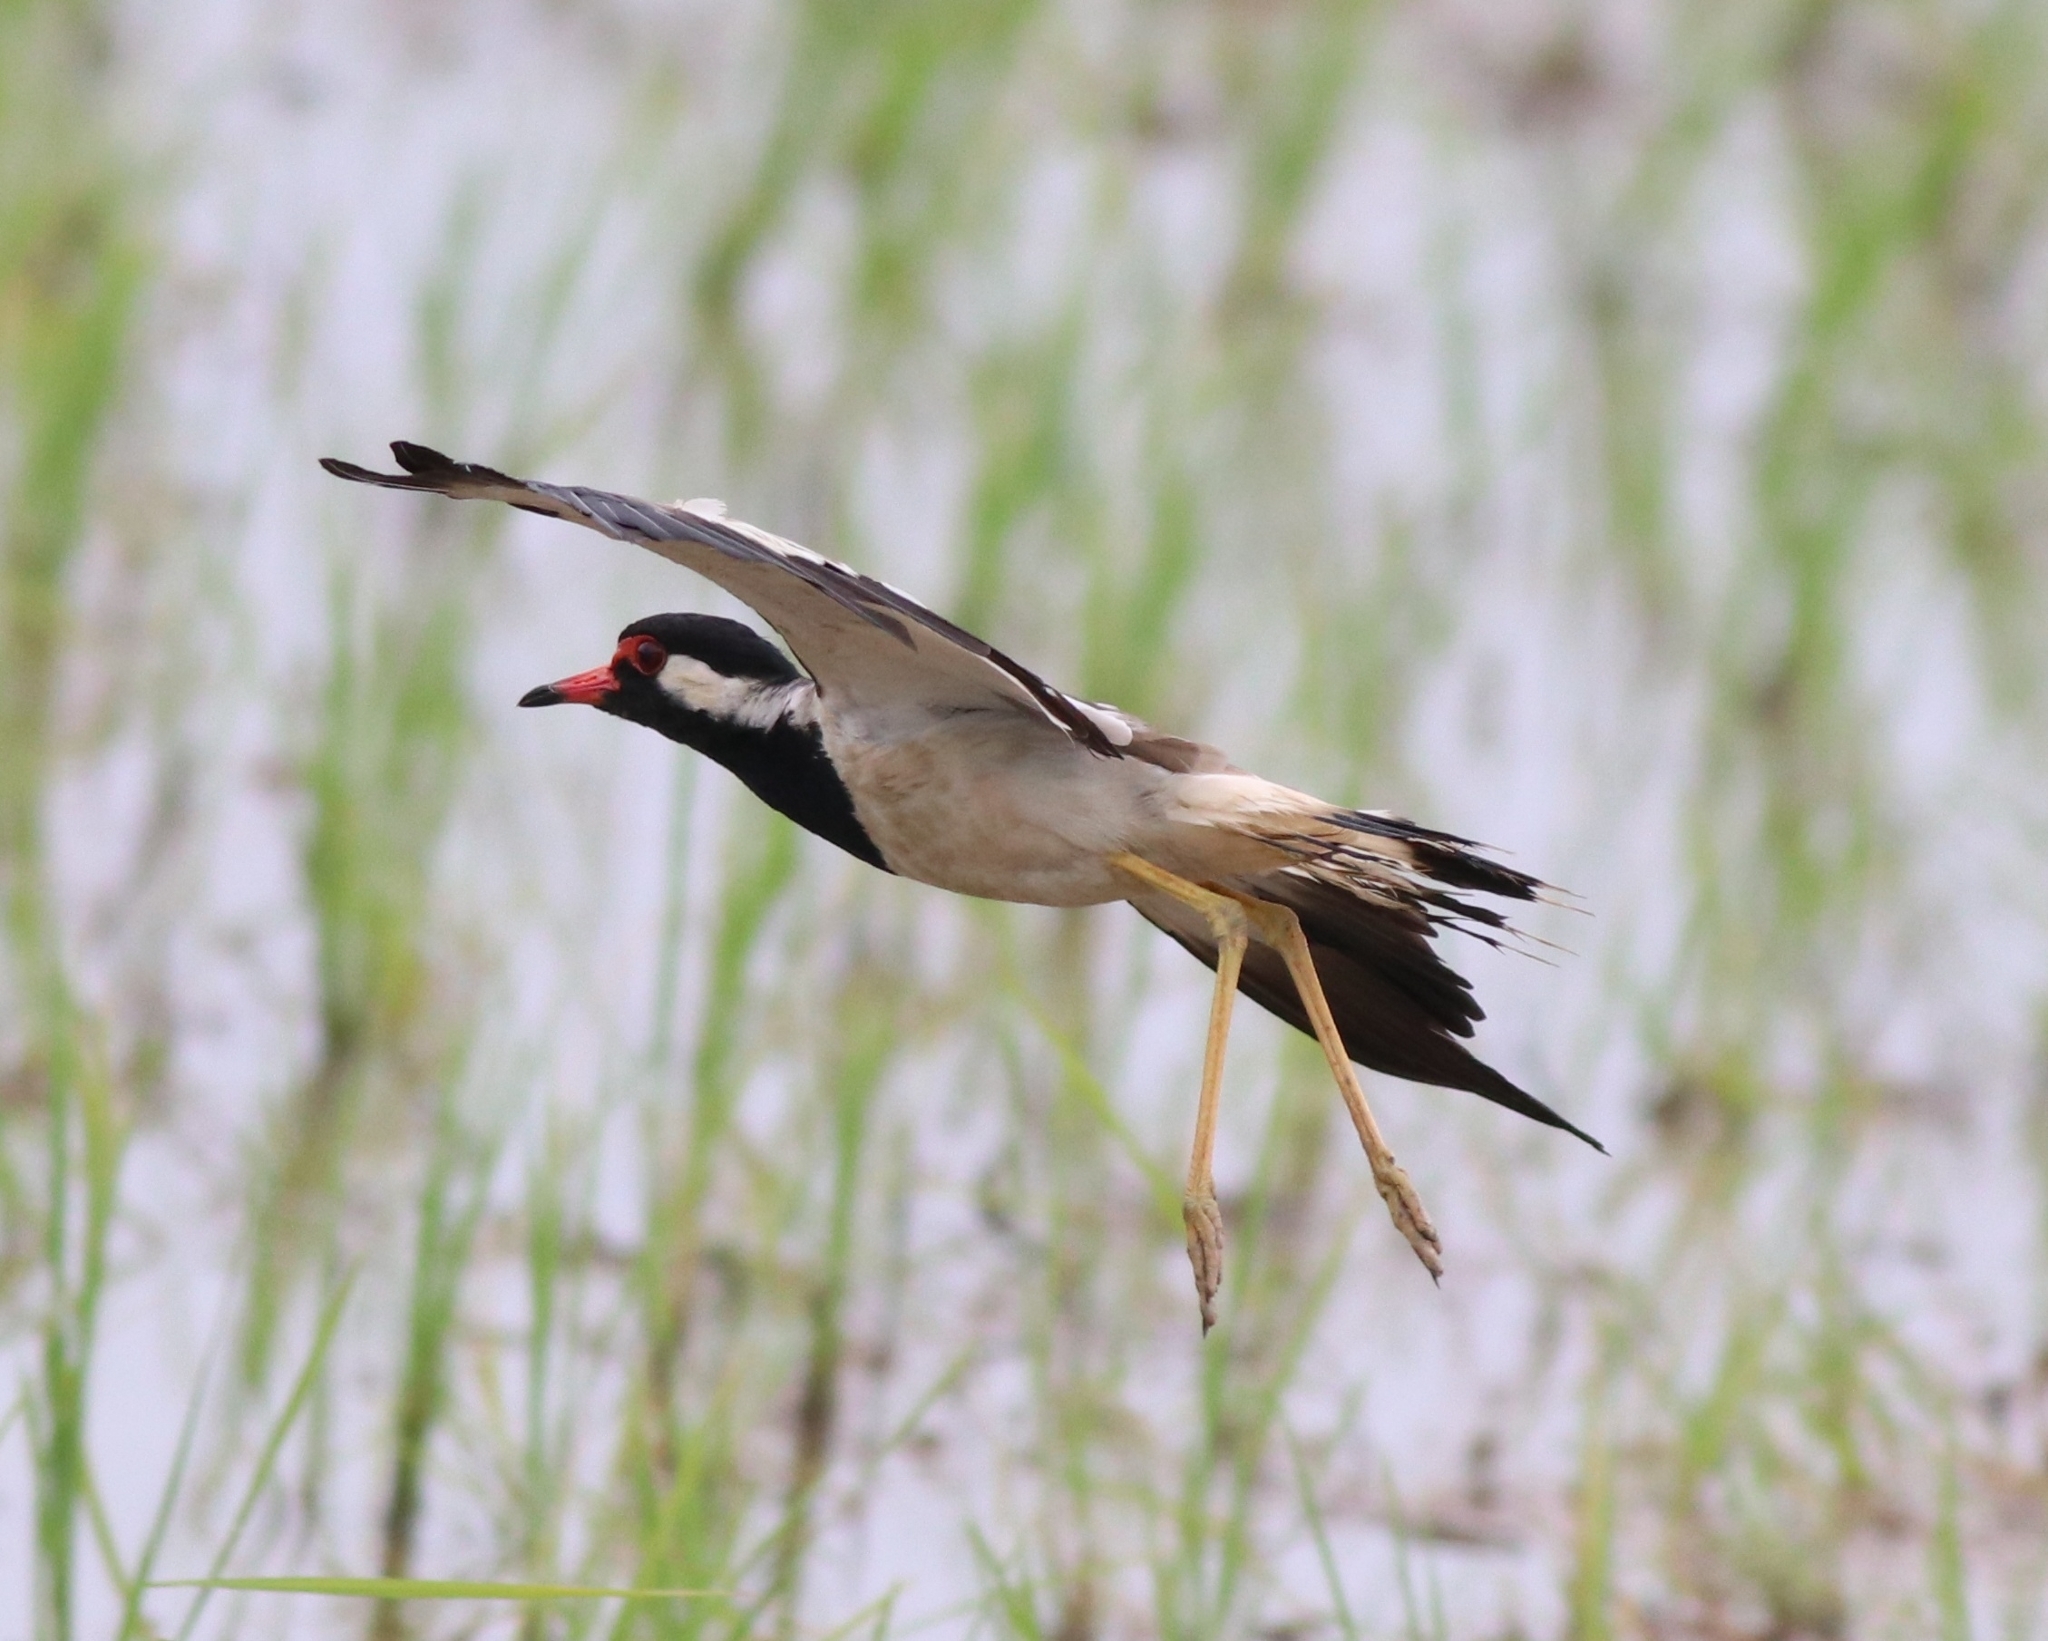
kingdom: Animalia
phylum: Chordata
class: Aves
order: Charadriiformes
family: Charadriidae
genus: Vanellus
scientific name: Vanellus indicus
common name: Red-wattled lapwing
